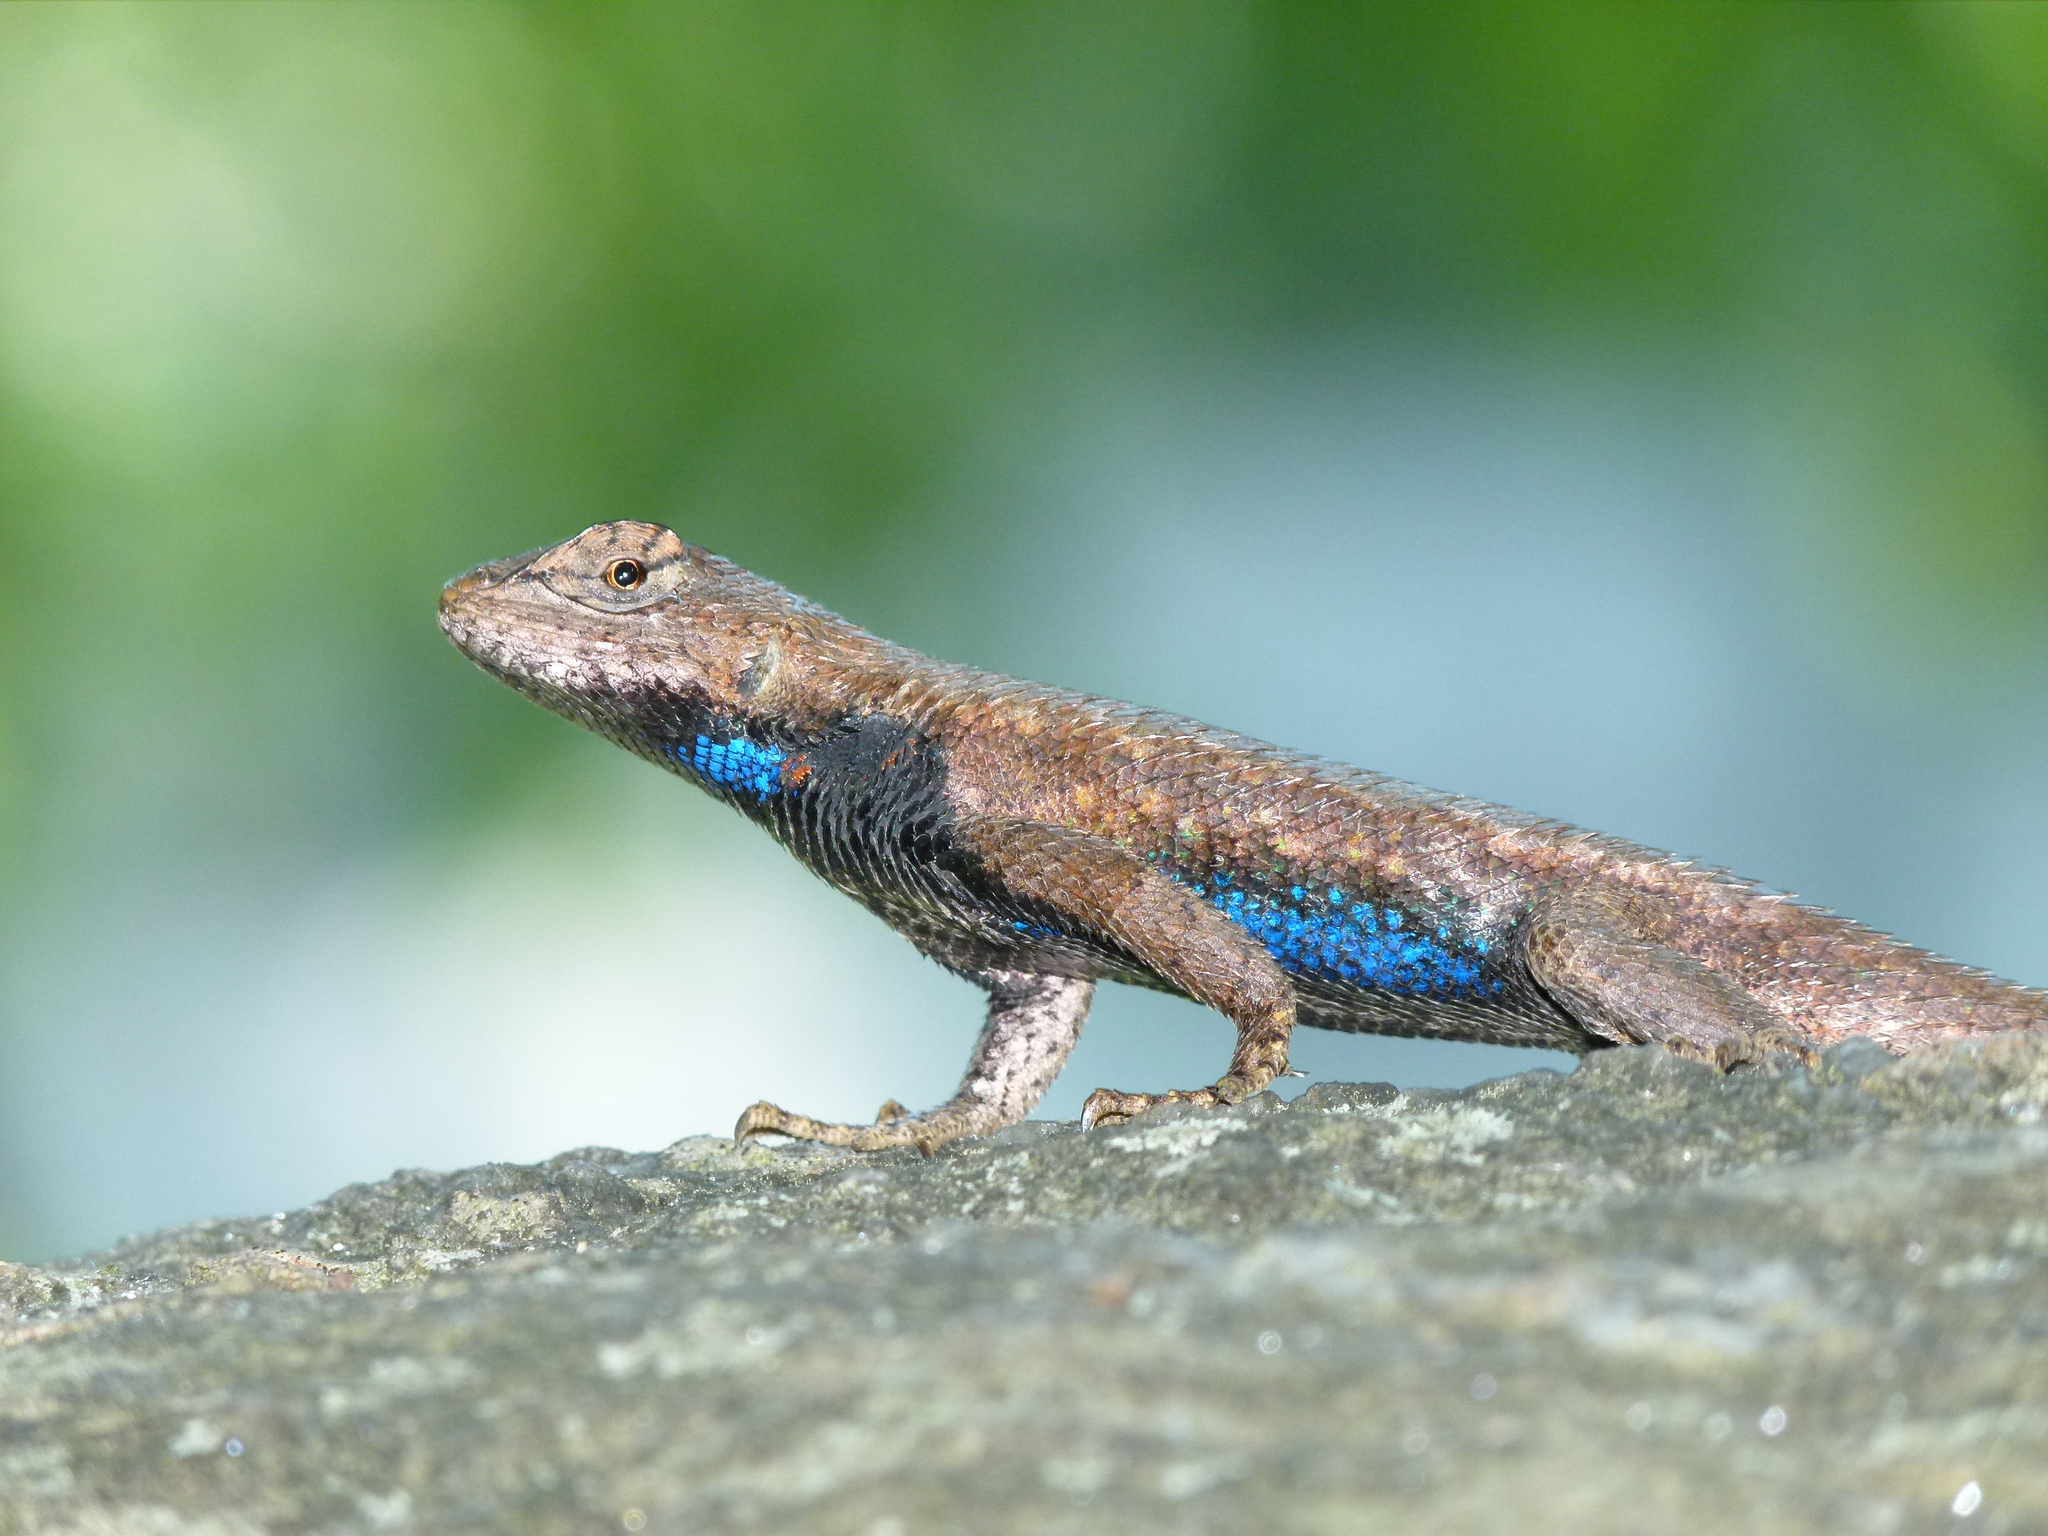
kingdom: Animalia
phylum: Chordata
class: Squamata
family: Phrynosomatidae
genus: Sceloporus
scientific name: Sceloporus undulatus
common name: Eastern fence lizard
